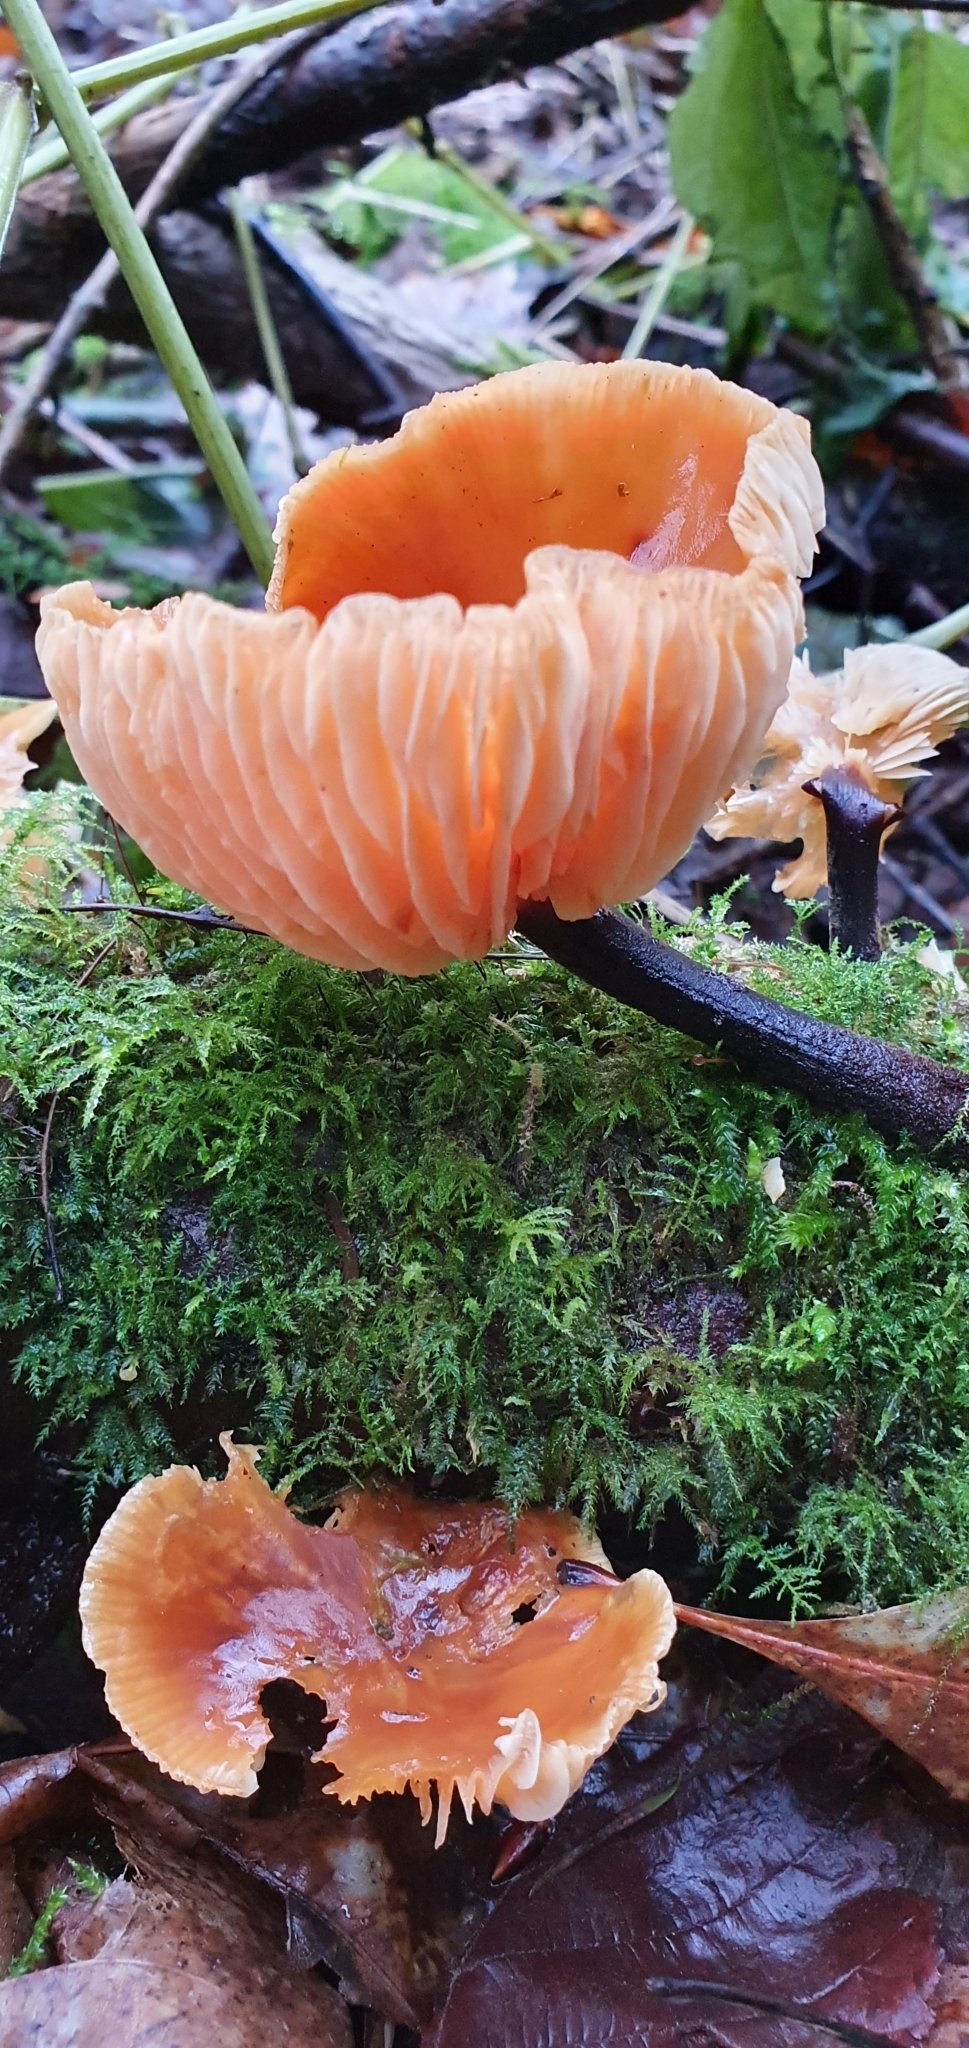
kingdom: Fungi
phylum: Basidiomycota
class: Agaricomycetes
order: Agaricales
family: Physalacriaceae
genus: Flammulina
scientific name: Flammulina
